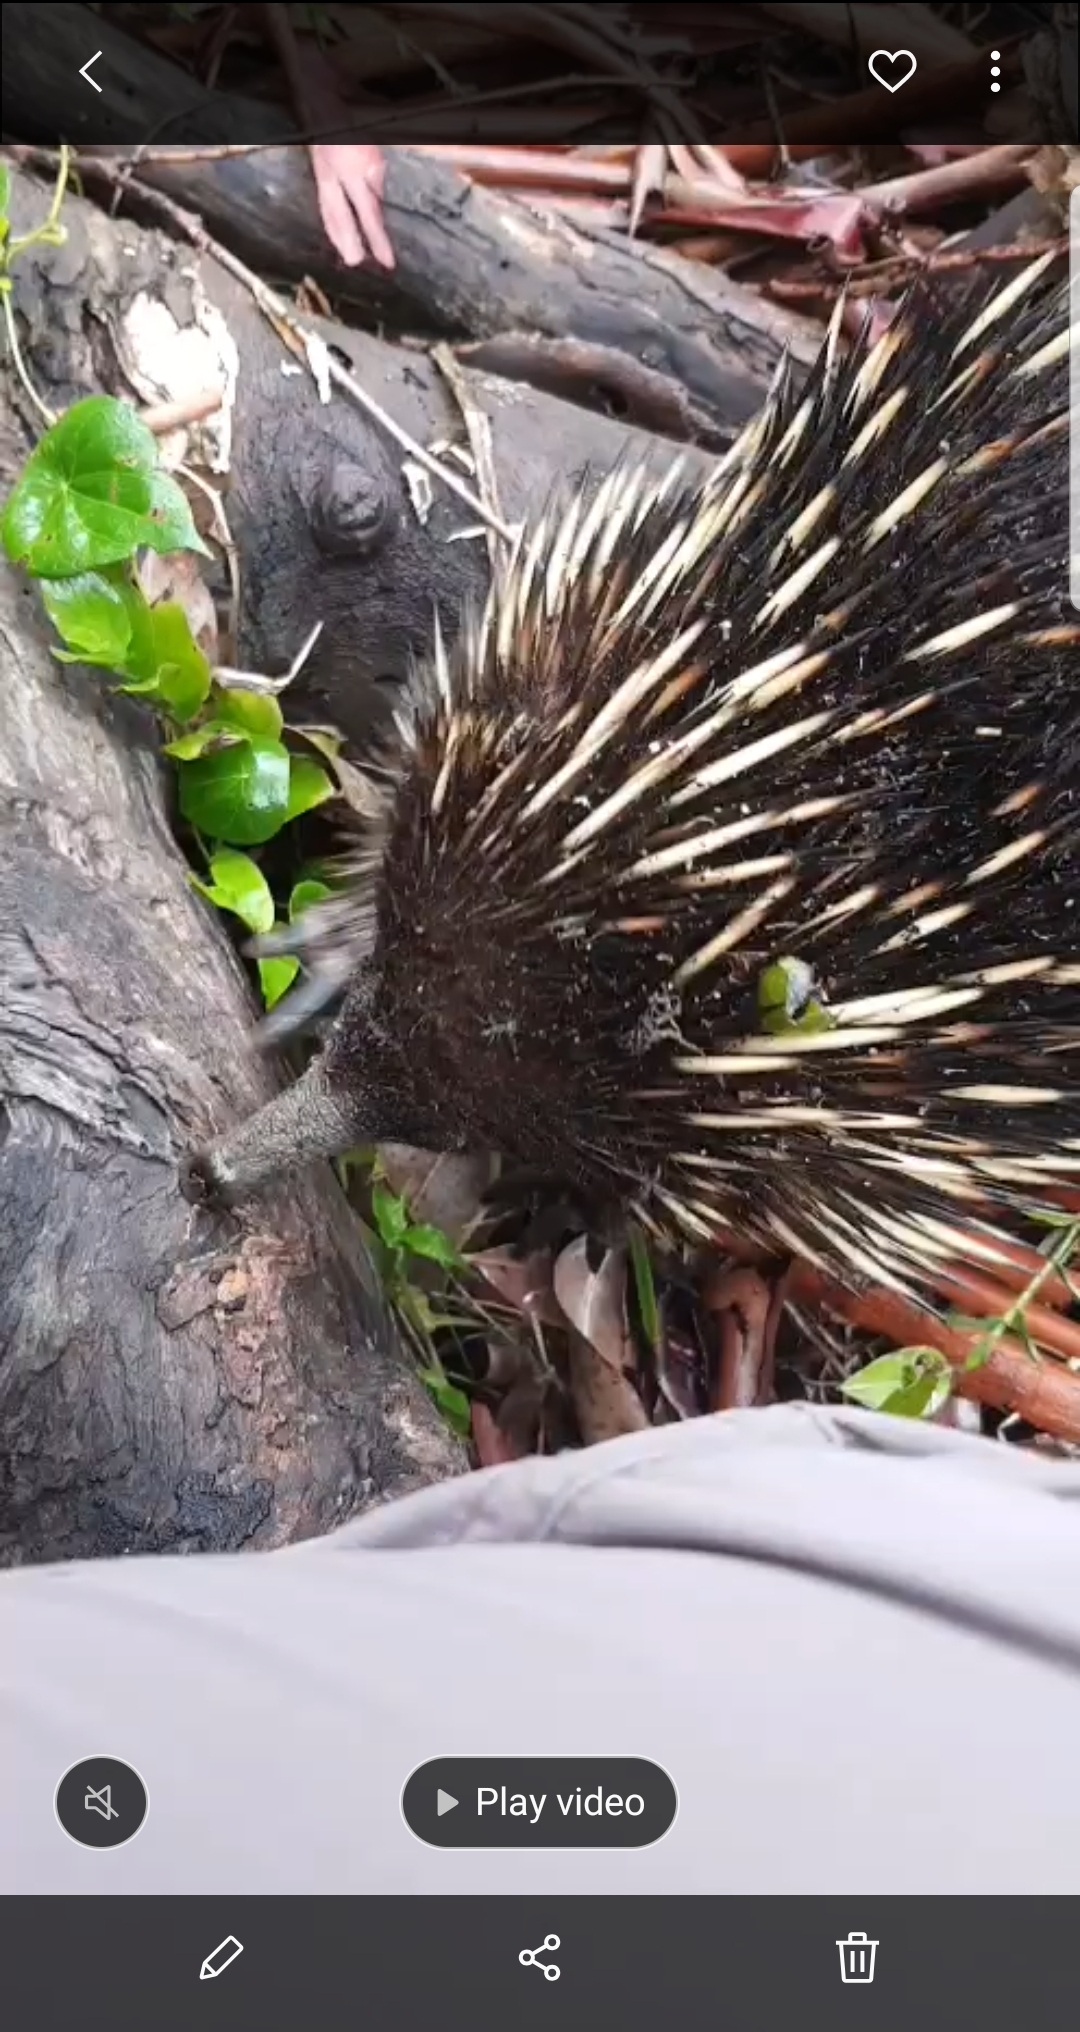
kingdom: Animalia
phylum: Chordata
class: Mammalia
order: Monotremata
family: Tachyglossidae
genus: Tachyglossus
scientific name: Tachyglossus aculeatus
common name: Short-beaked echidna
